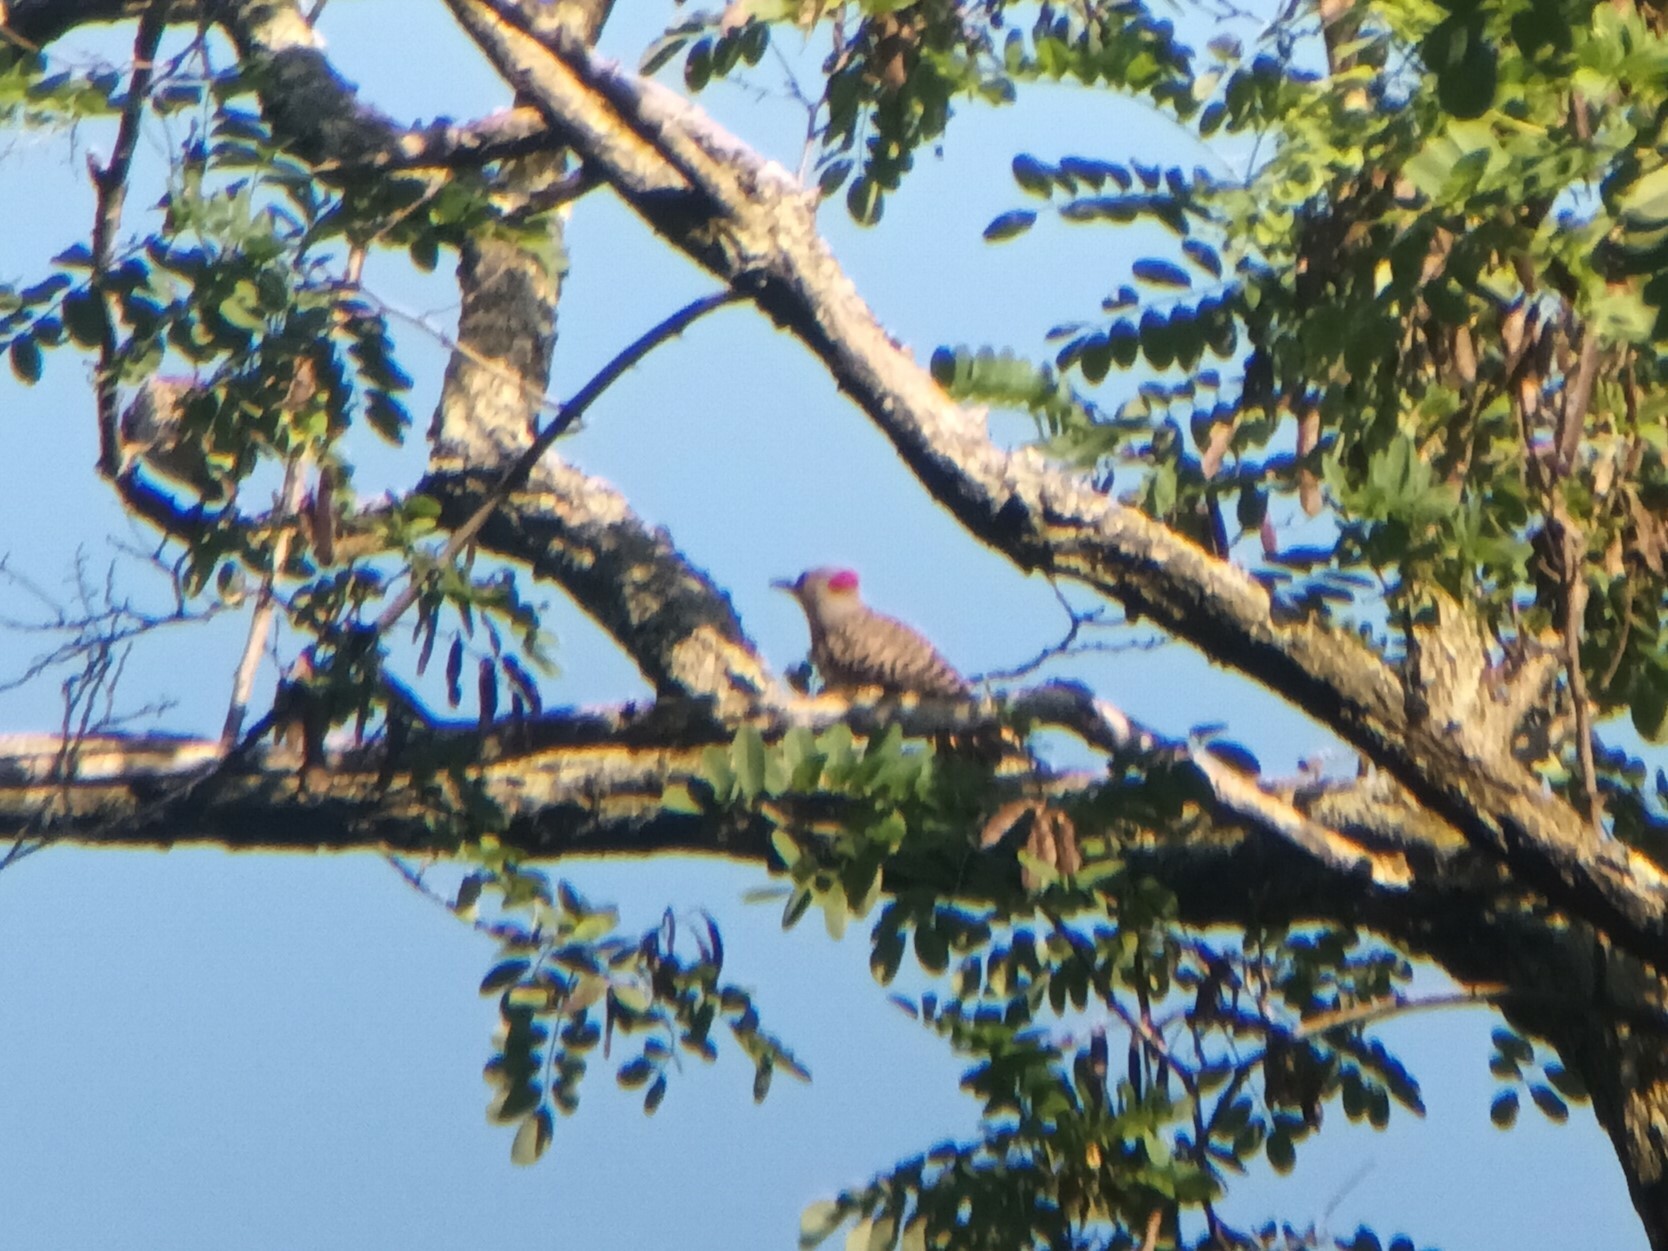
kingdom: Animalia
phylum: Chordata
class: Aves
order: Piciformes
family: Picidae
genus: Colaptes
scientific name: Colaptes auratus
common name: Northern flicker
